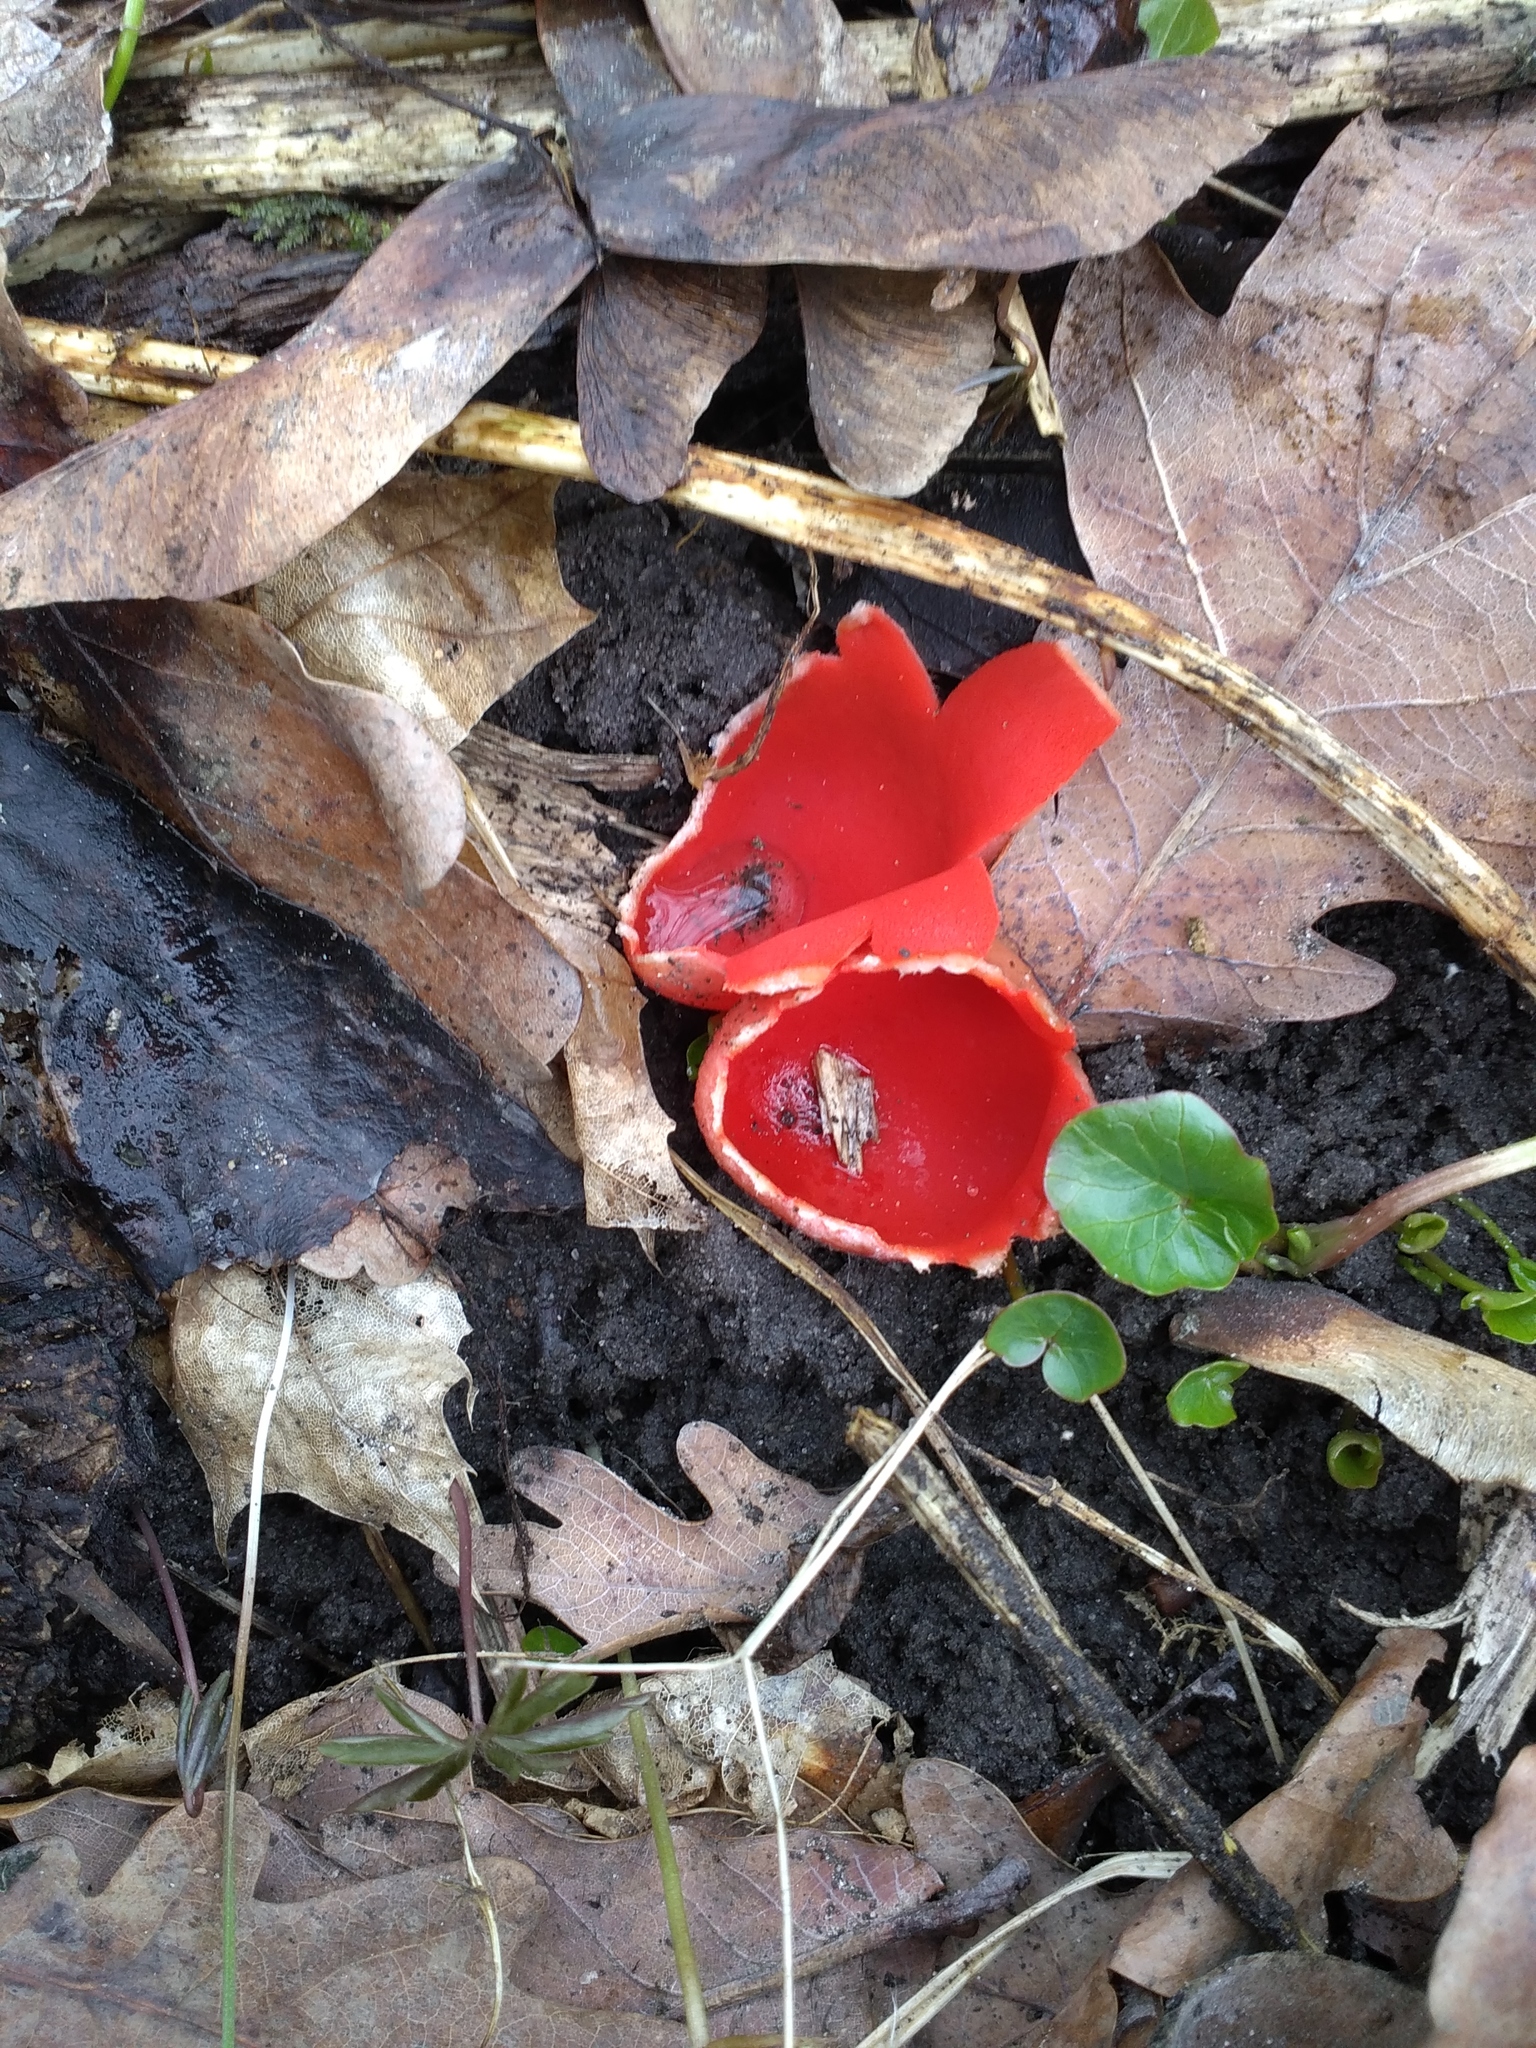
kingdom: Fungi
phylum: Ascomycota
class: Pezizomycetes
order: Pezizales
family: Sarcoscyphaceae
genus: Sarcoscypha
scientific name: Sarcoscypha austriaca
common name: Scarlet elfcup
